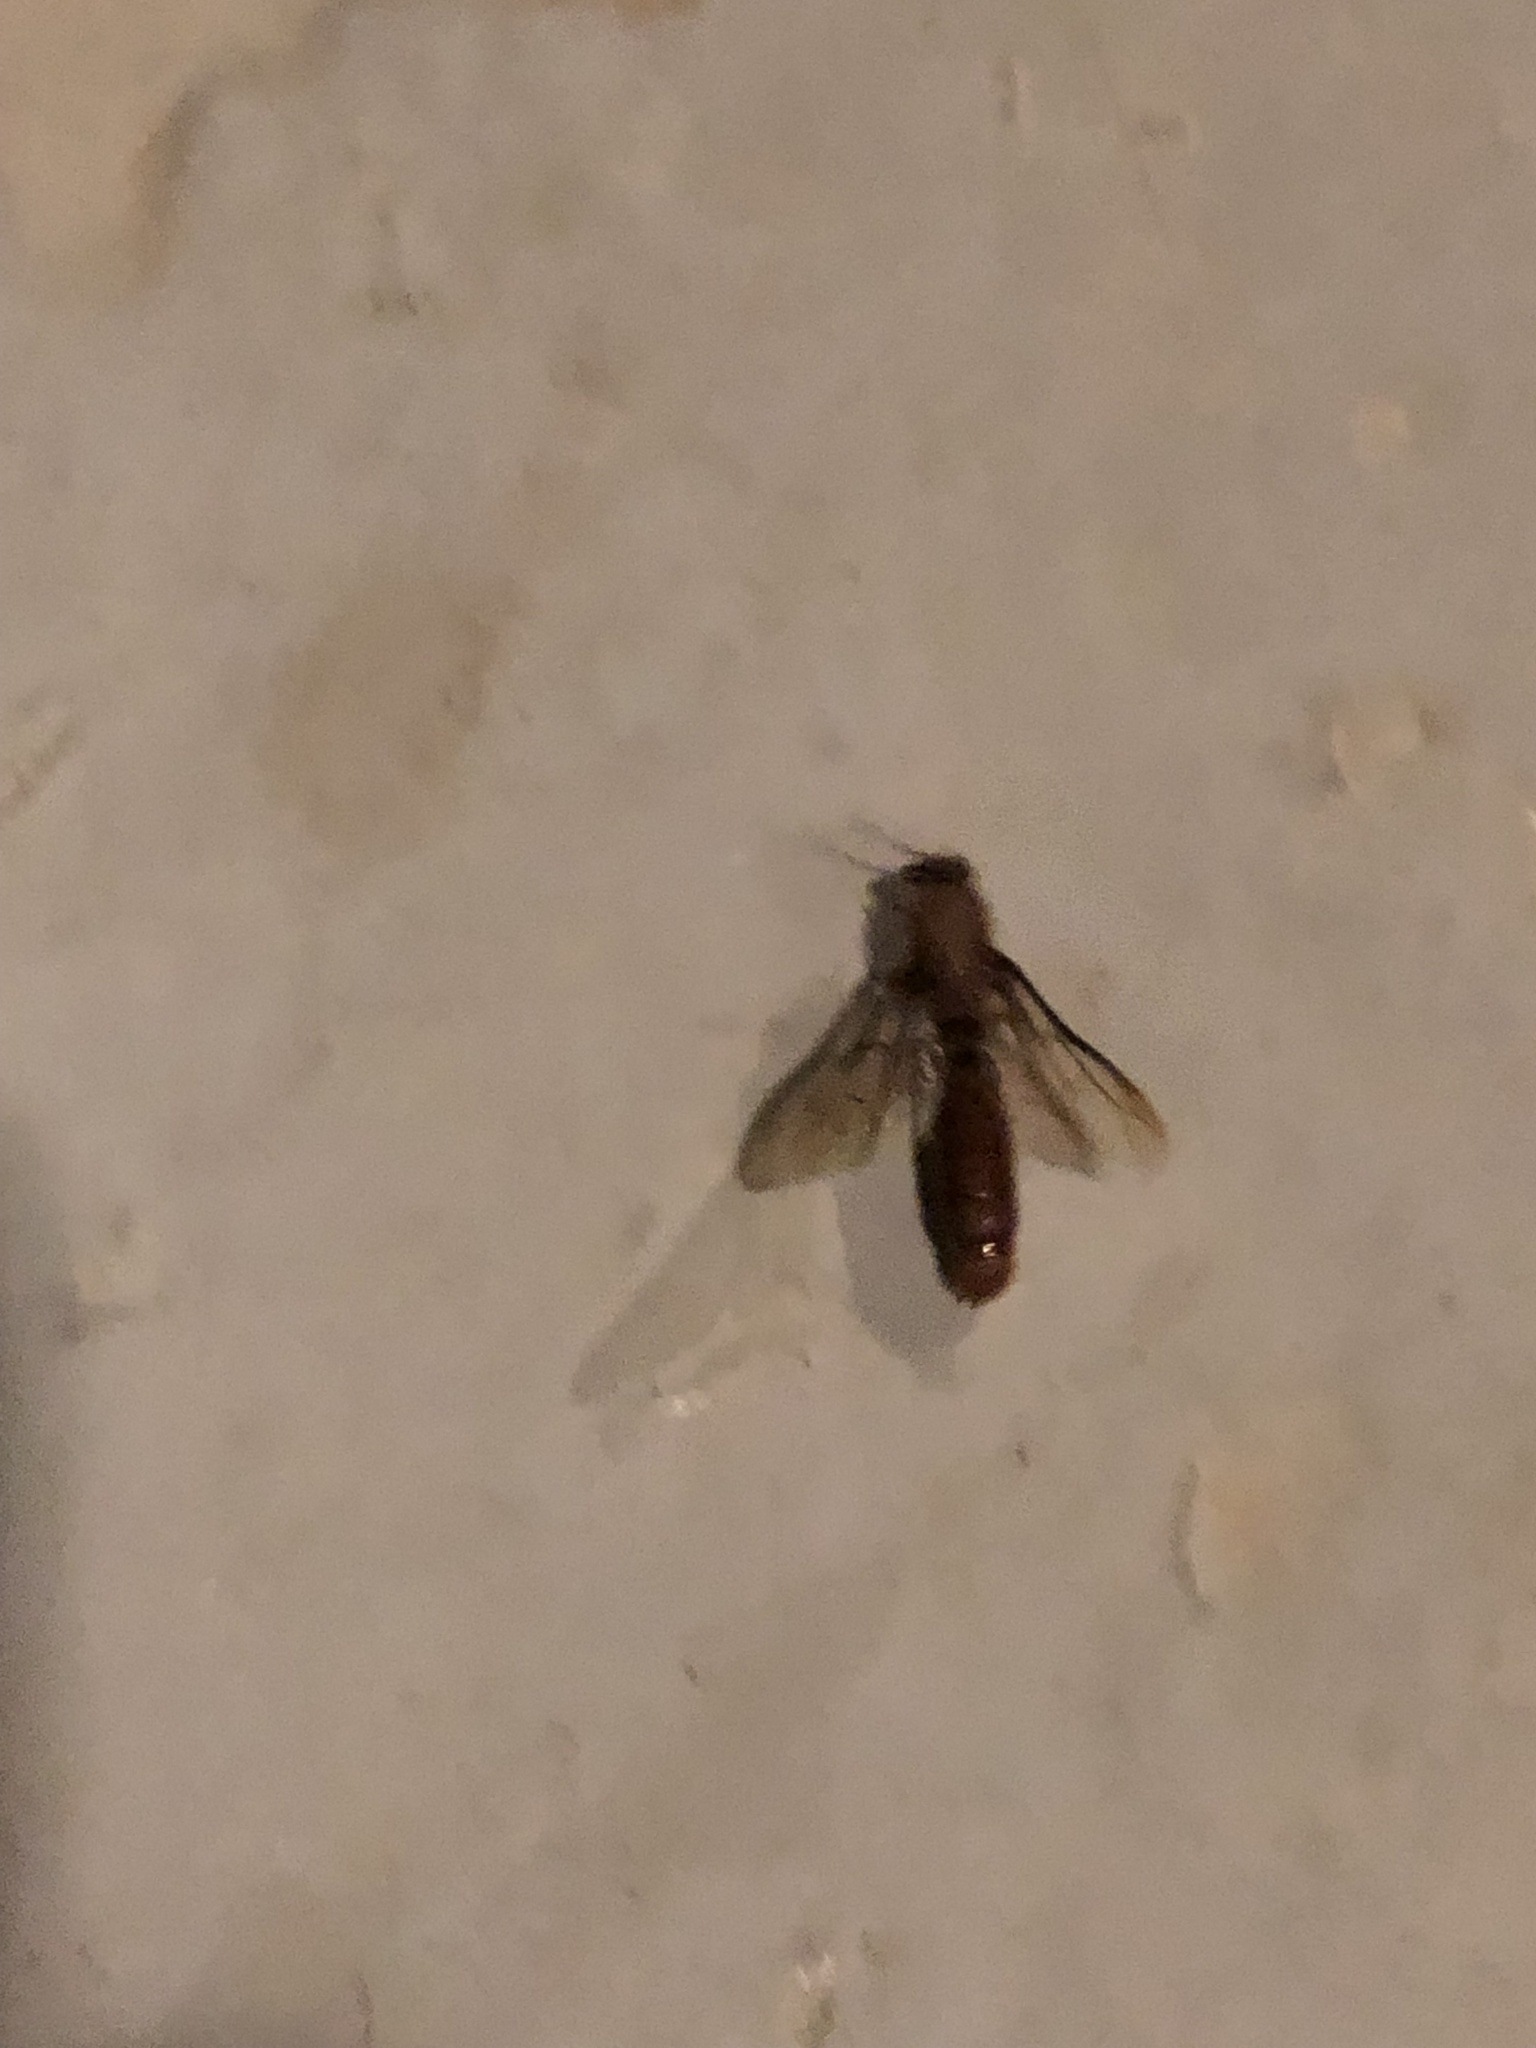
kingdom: Animalia
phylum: Arthropoda
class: Insecta
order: Hymenoptera
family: Formicidae
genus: Dorylus
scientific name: Dorylus
